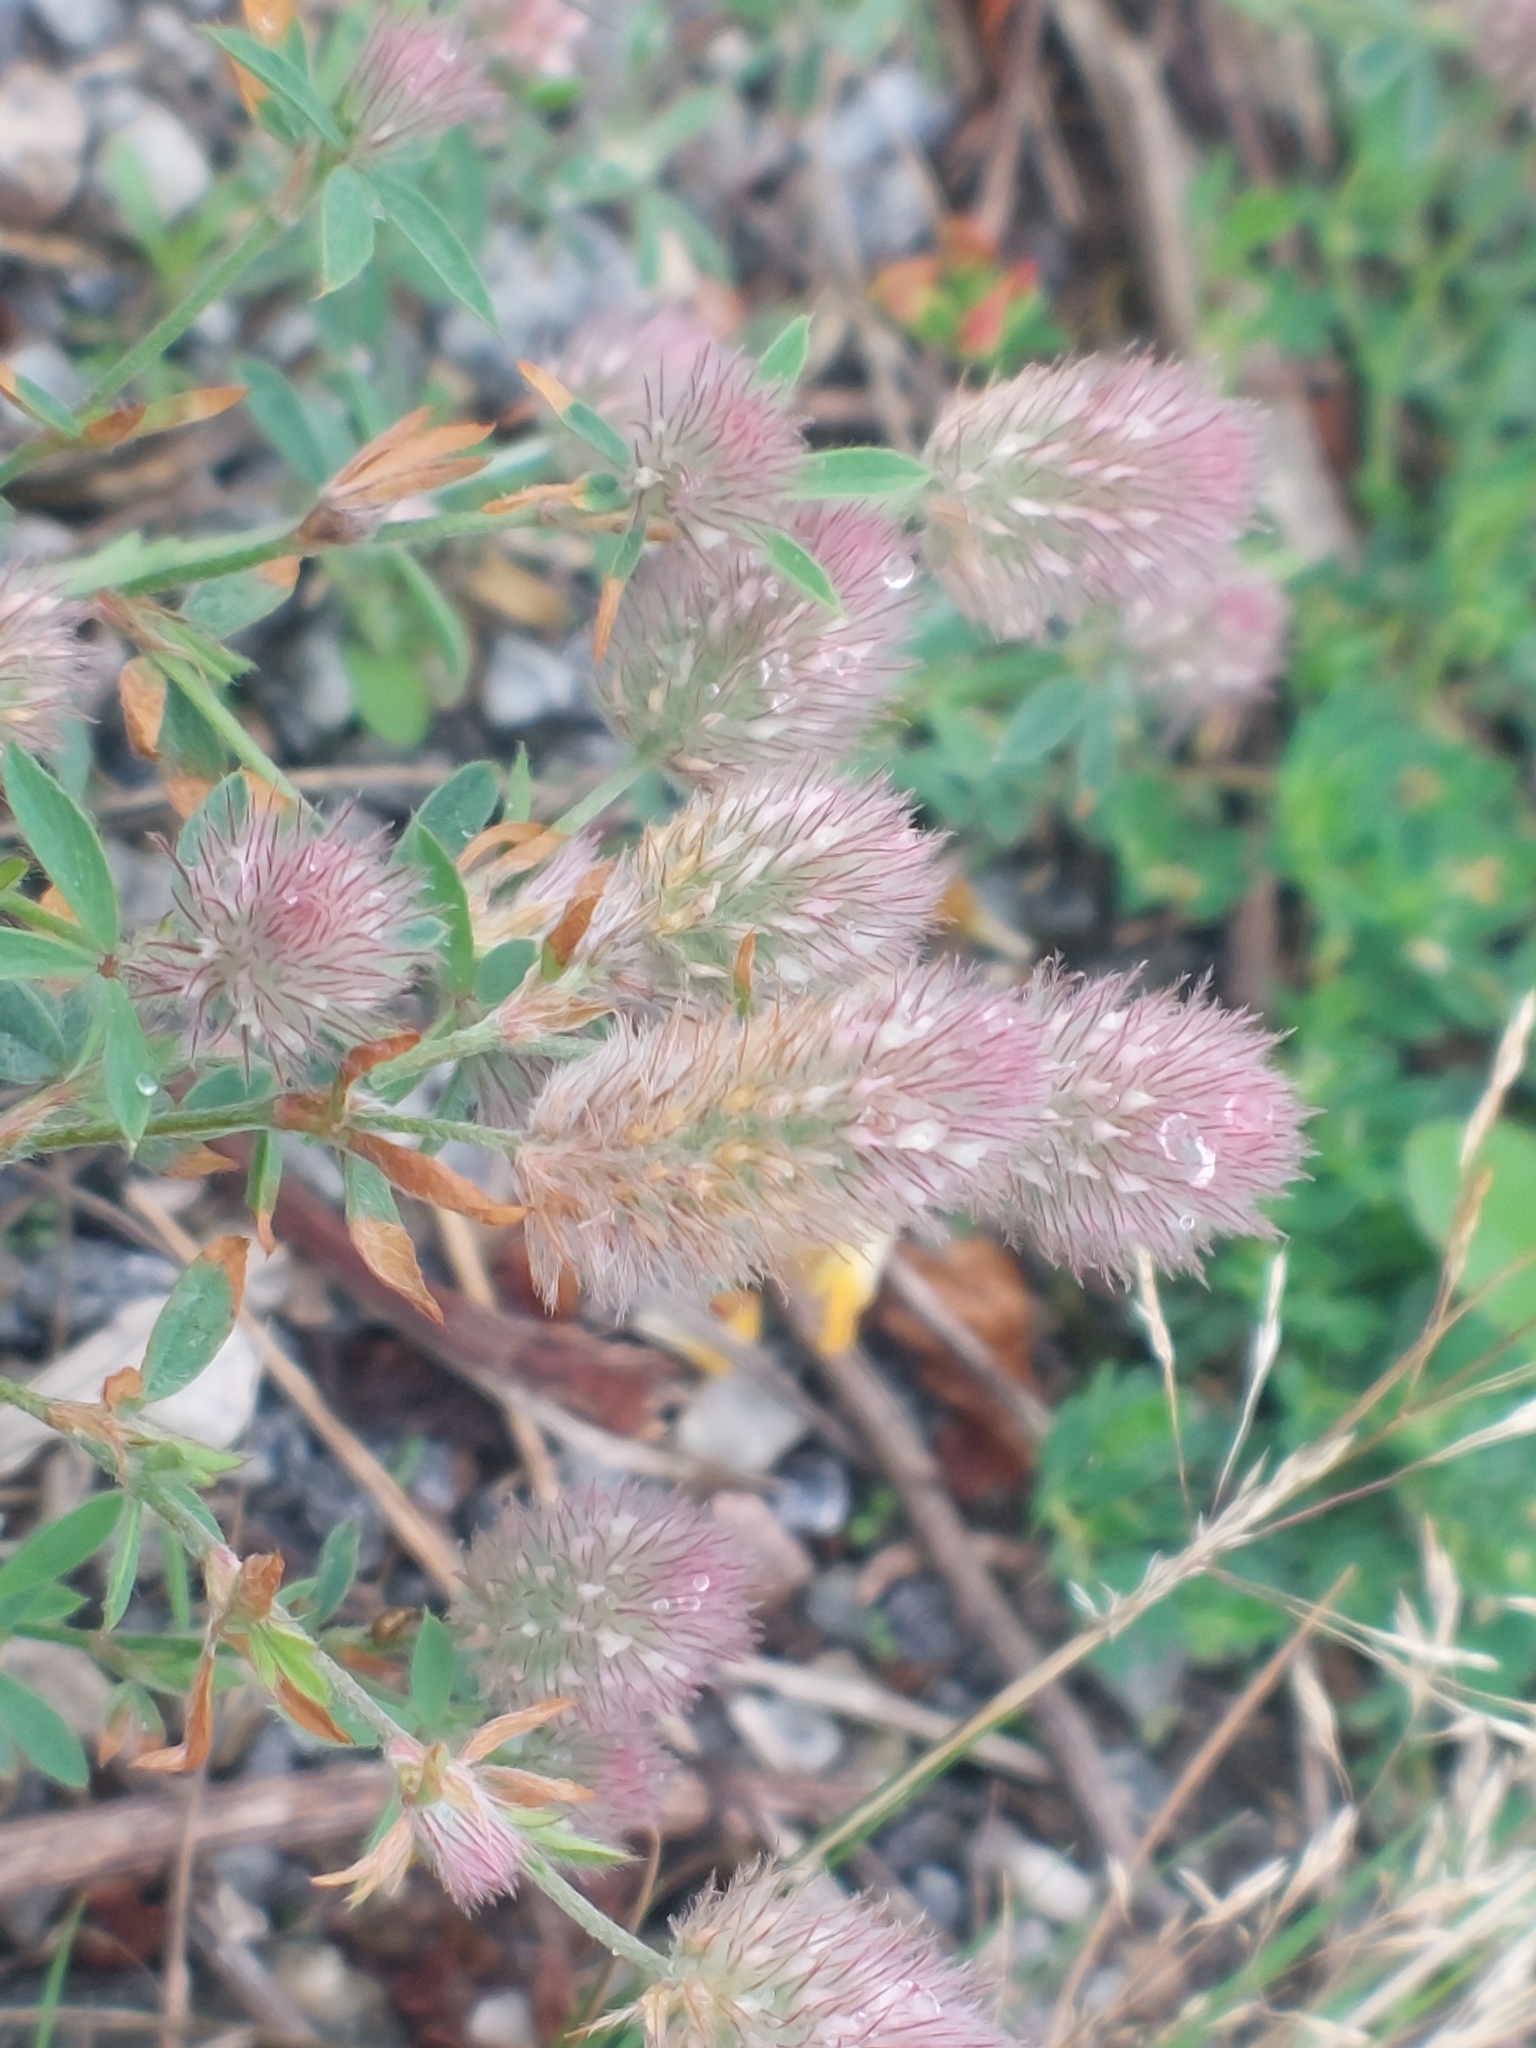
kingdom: Plantae
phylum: Tracheophyta
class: Magnoliopsida
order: Fabales
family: Fabaceae
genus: Trifolium
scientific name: Trifolium arvense
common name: Hare's-foot clover
